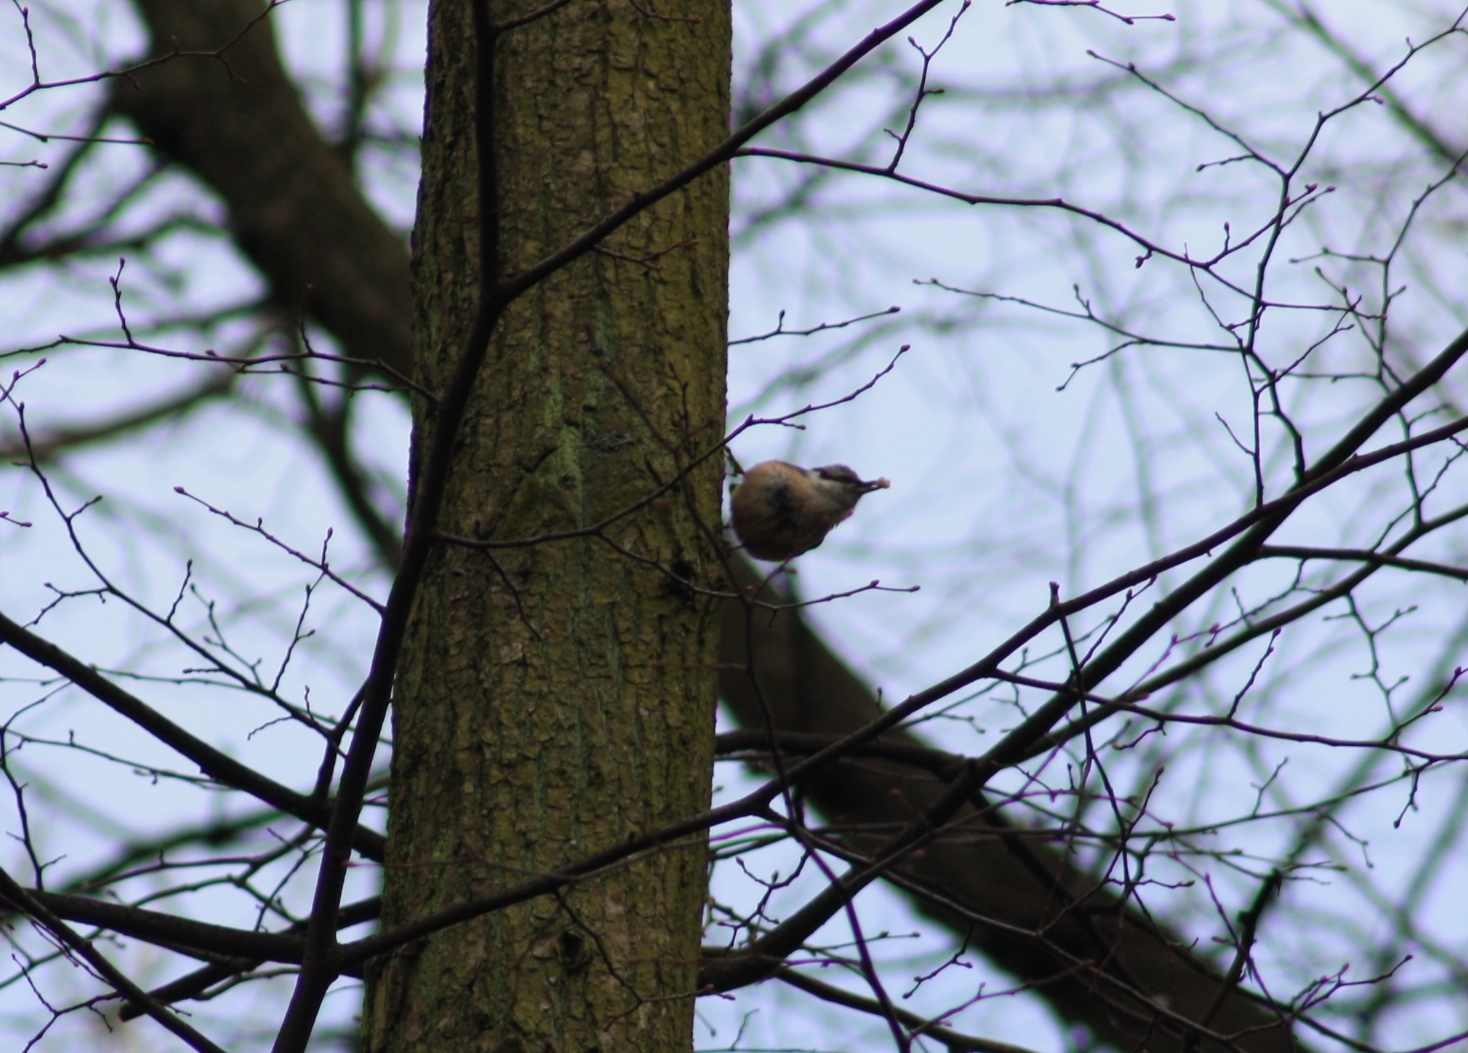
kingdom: Animalia
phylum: Chordata
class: Aves
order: Passeriformes
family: Sittidae
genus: Sitta
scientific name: Sitta europaea
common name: Eurasian nuthatch
